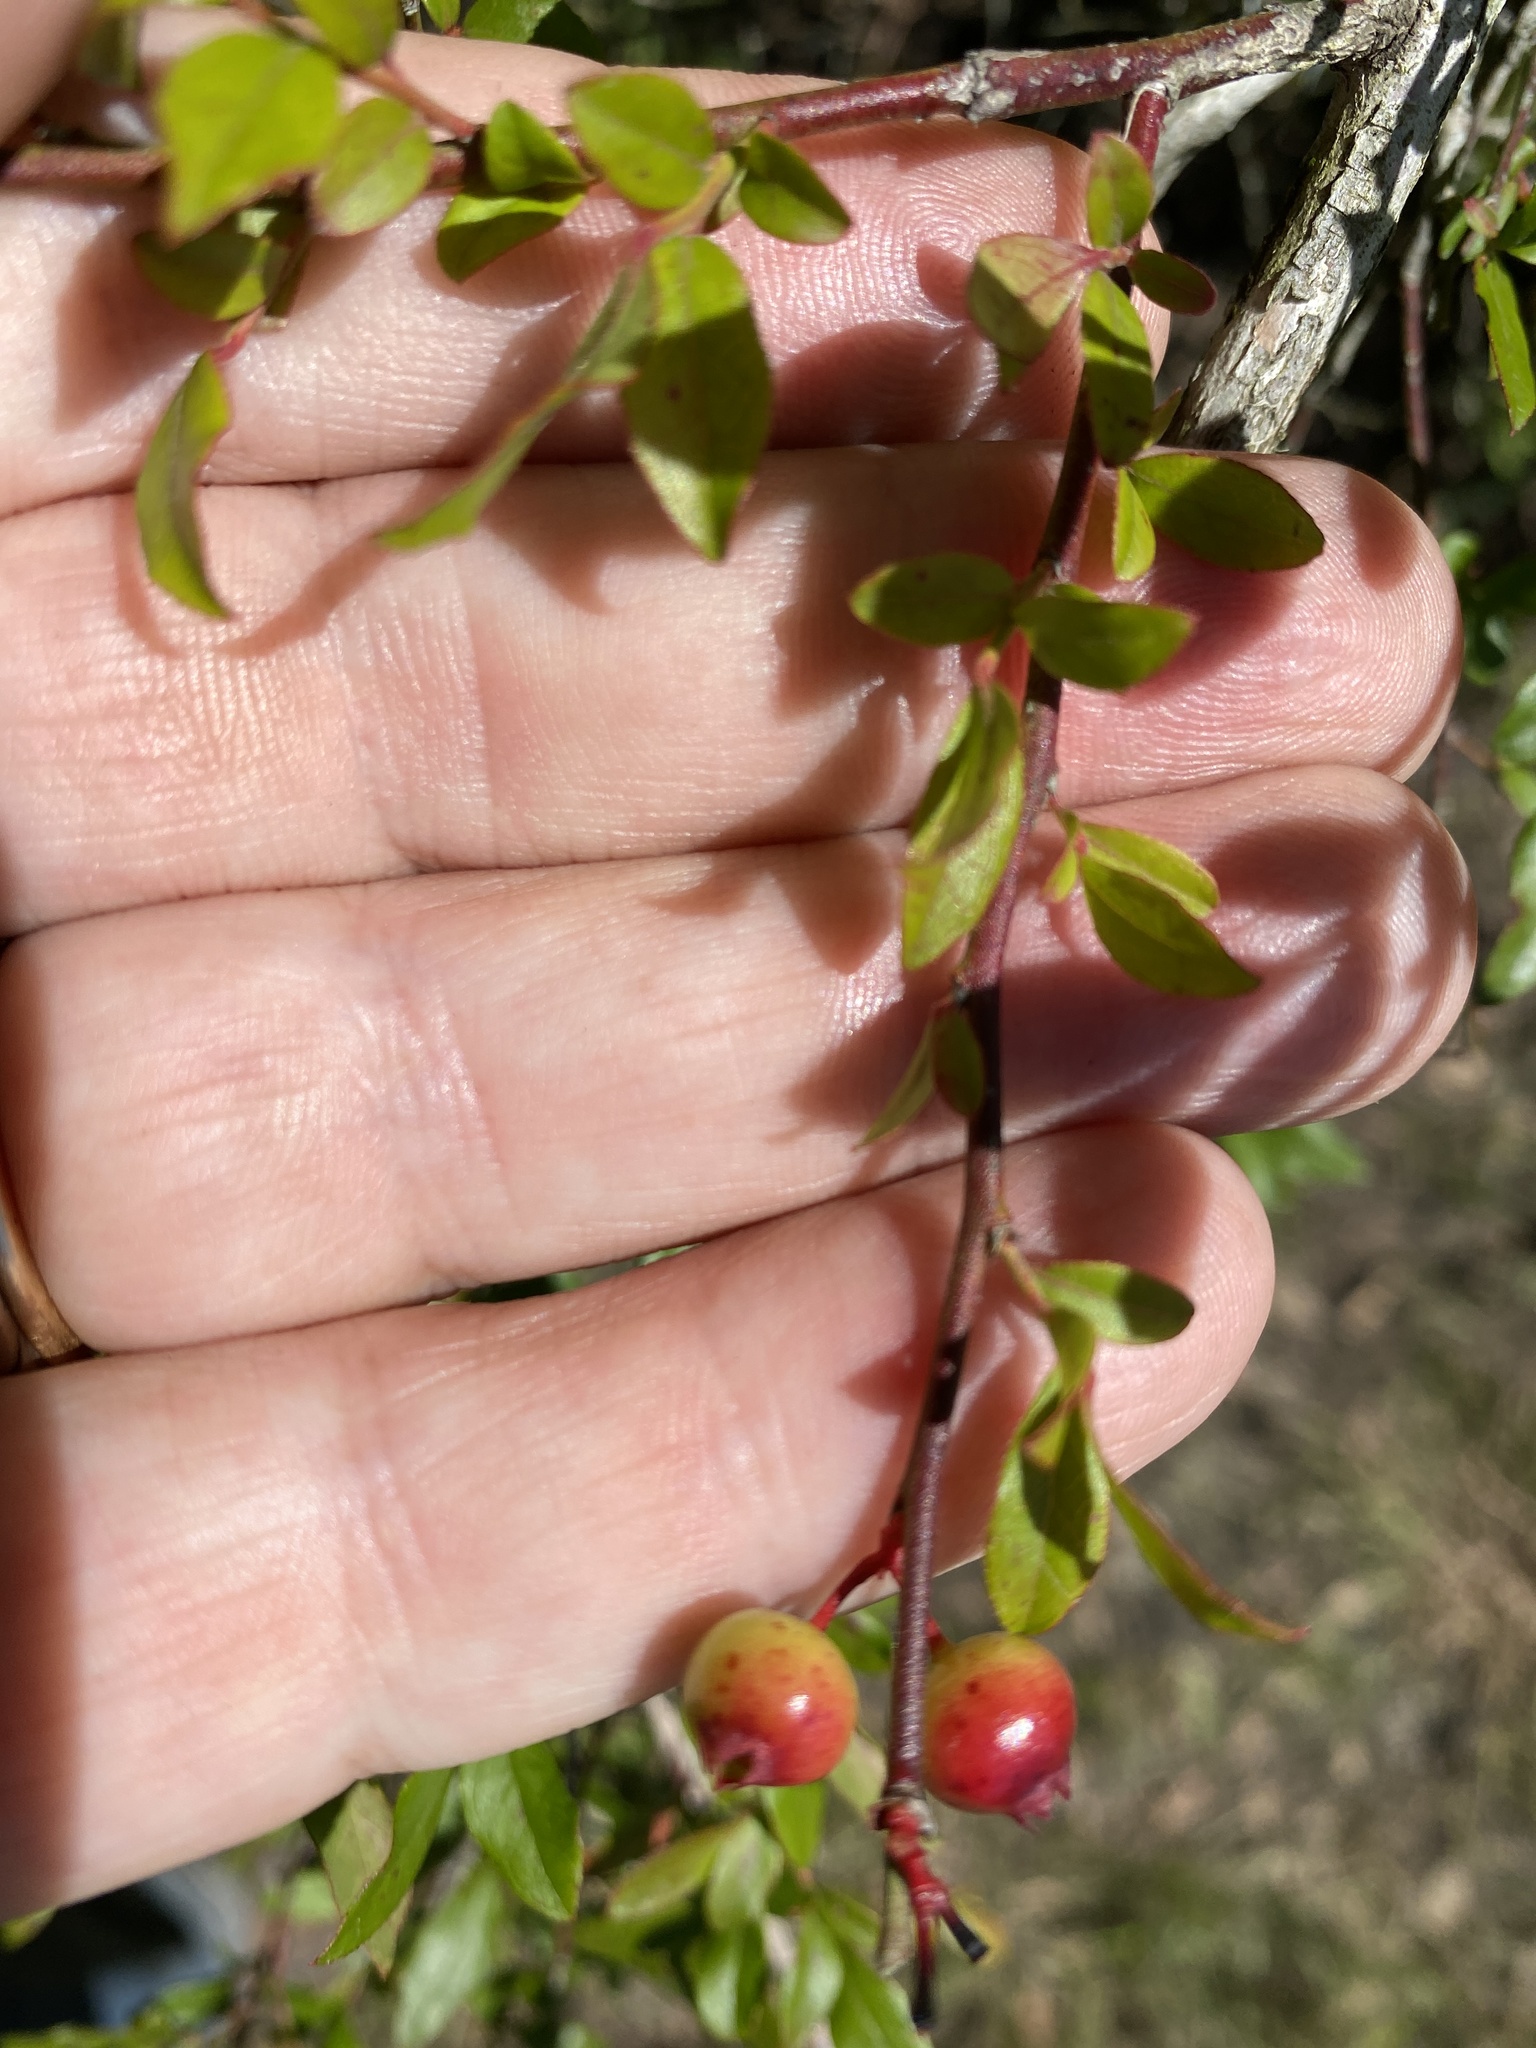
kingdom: Plantae
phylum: Tracheophyta
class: Magnoliopsida
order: Ericales
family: Ericaceae
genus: Vaccinium
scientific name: Vaccinium corymbosum
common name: Blueberry
